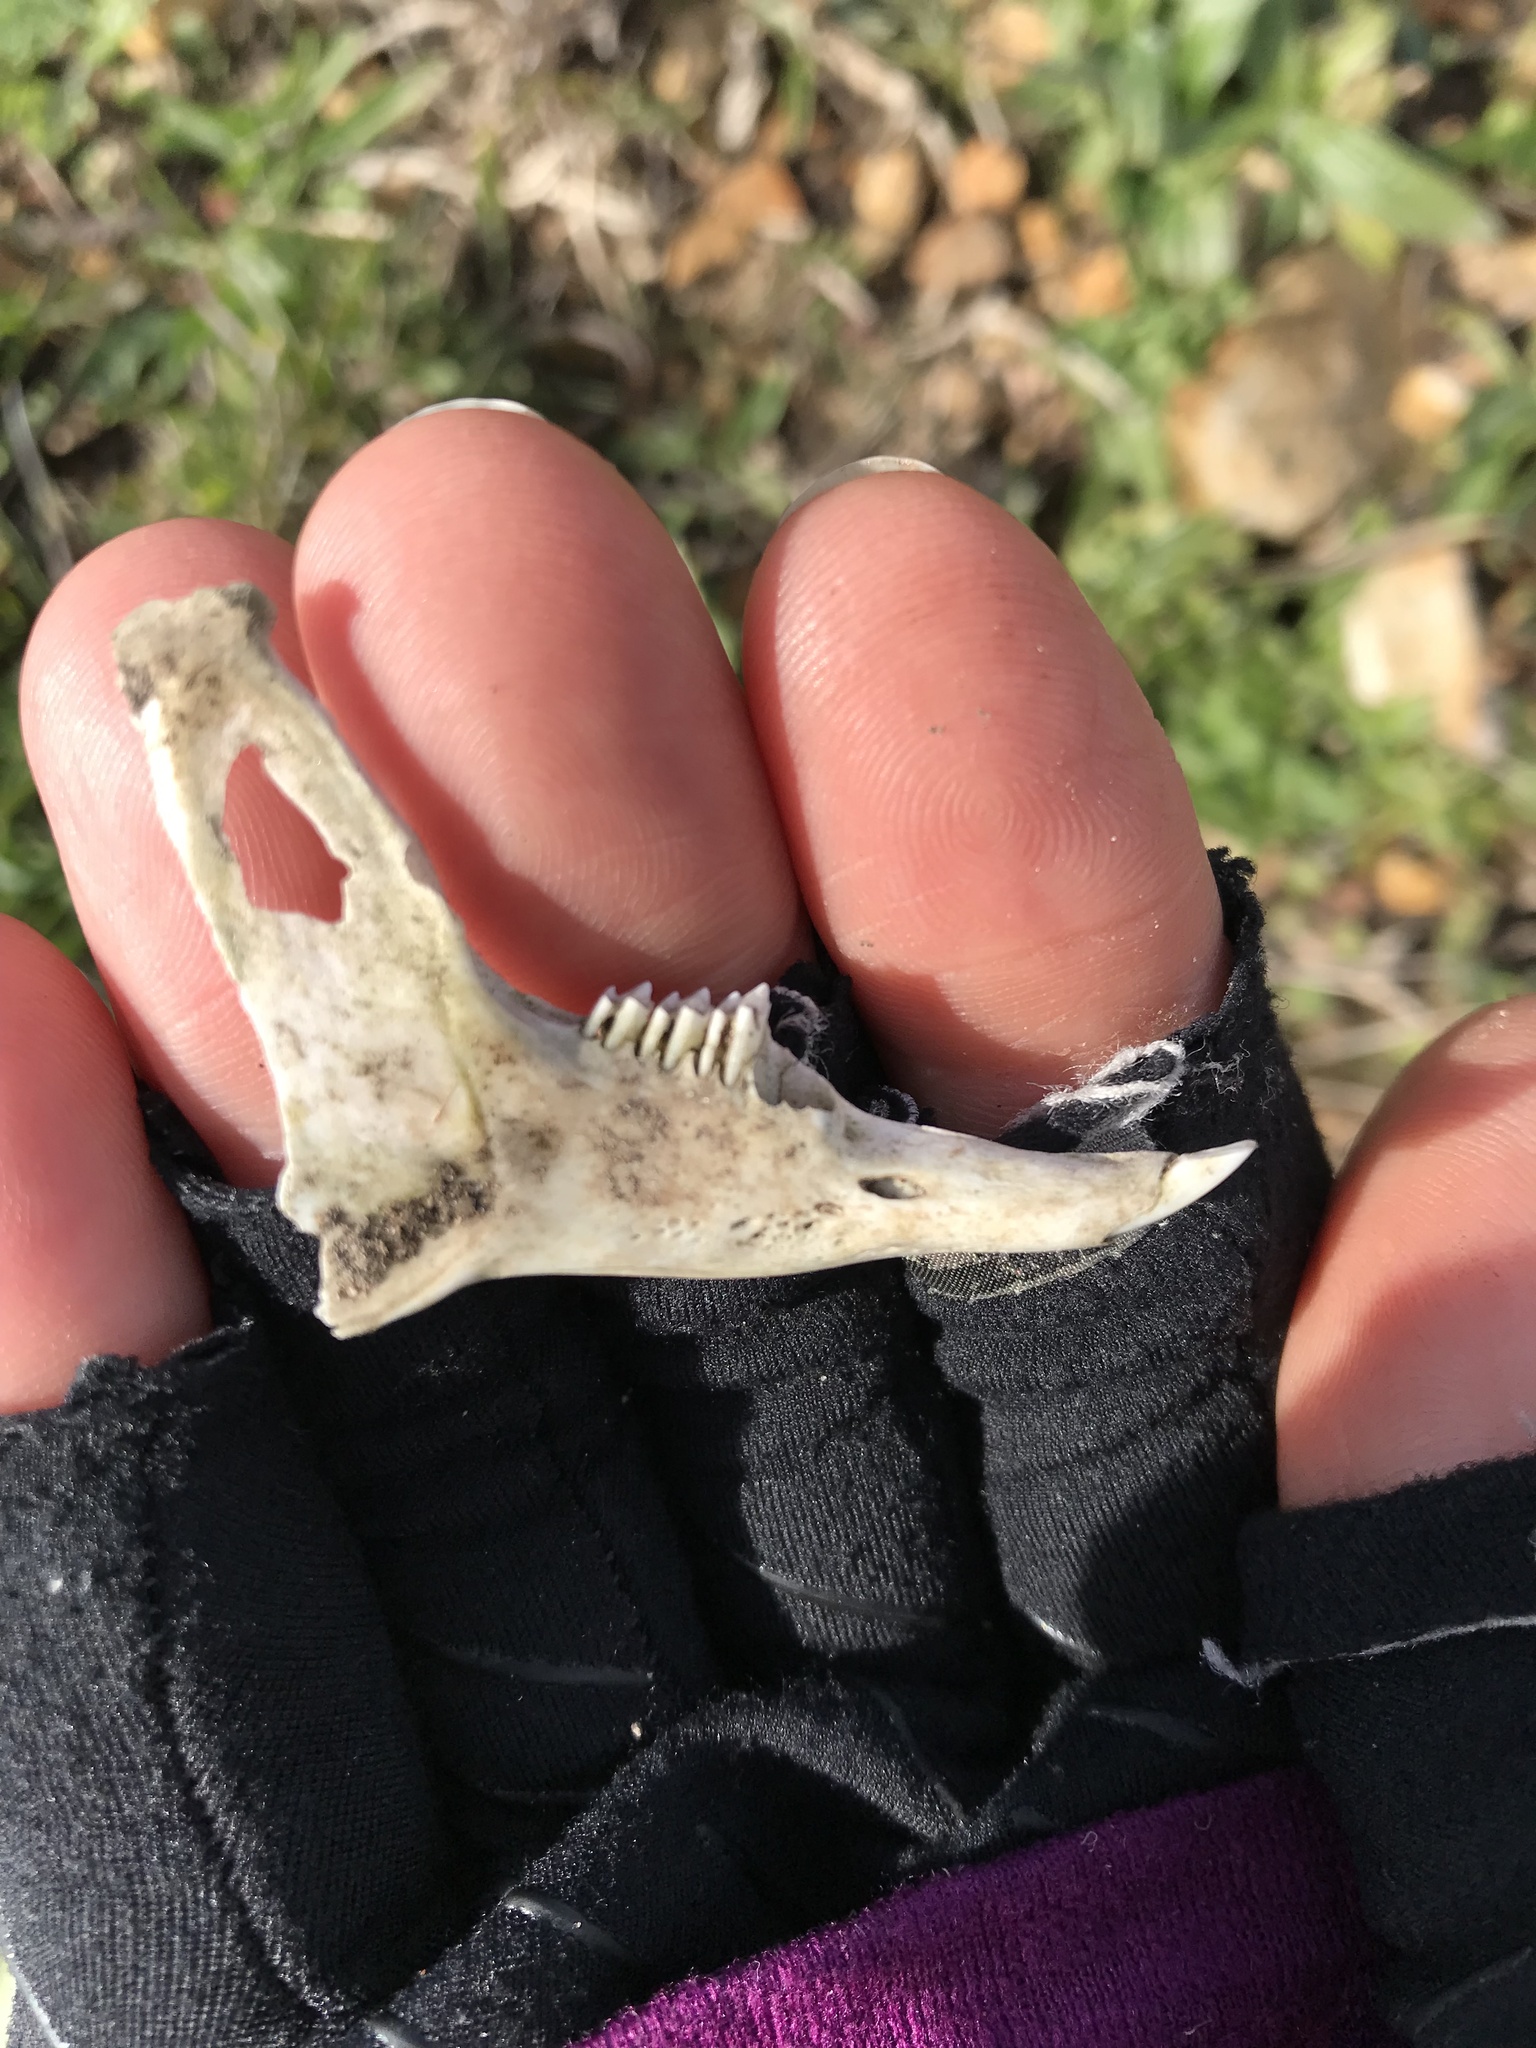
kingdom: Animalia
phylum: Chordata
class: Mammalia
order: Lagomorpha
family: Leporidae
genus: Sylvilagus
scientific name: Sylvilagus bachmani
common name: Brush rabbit
